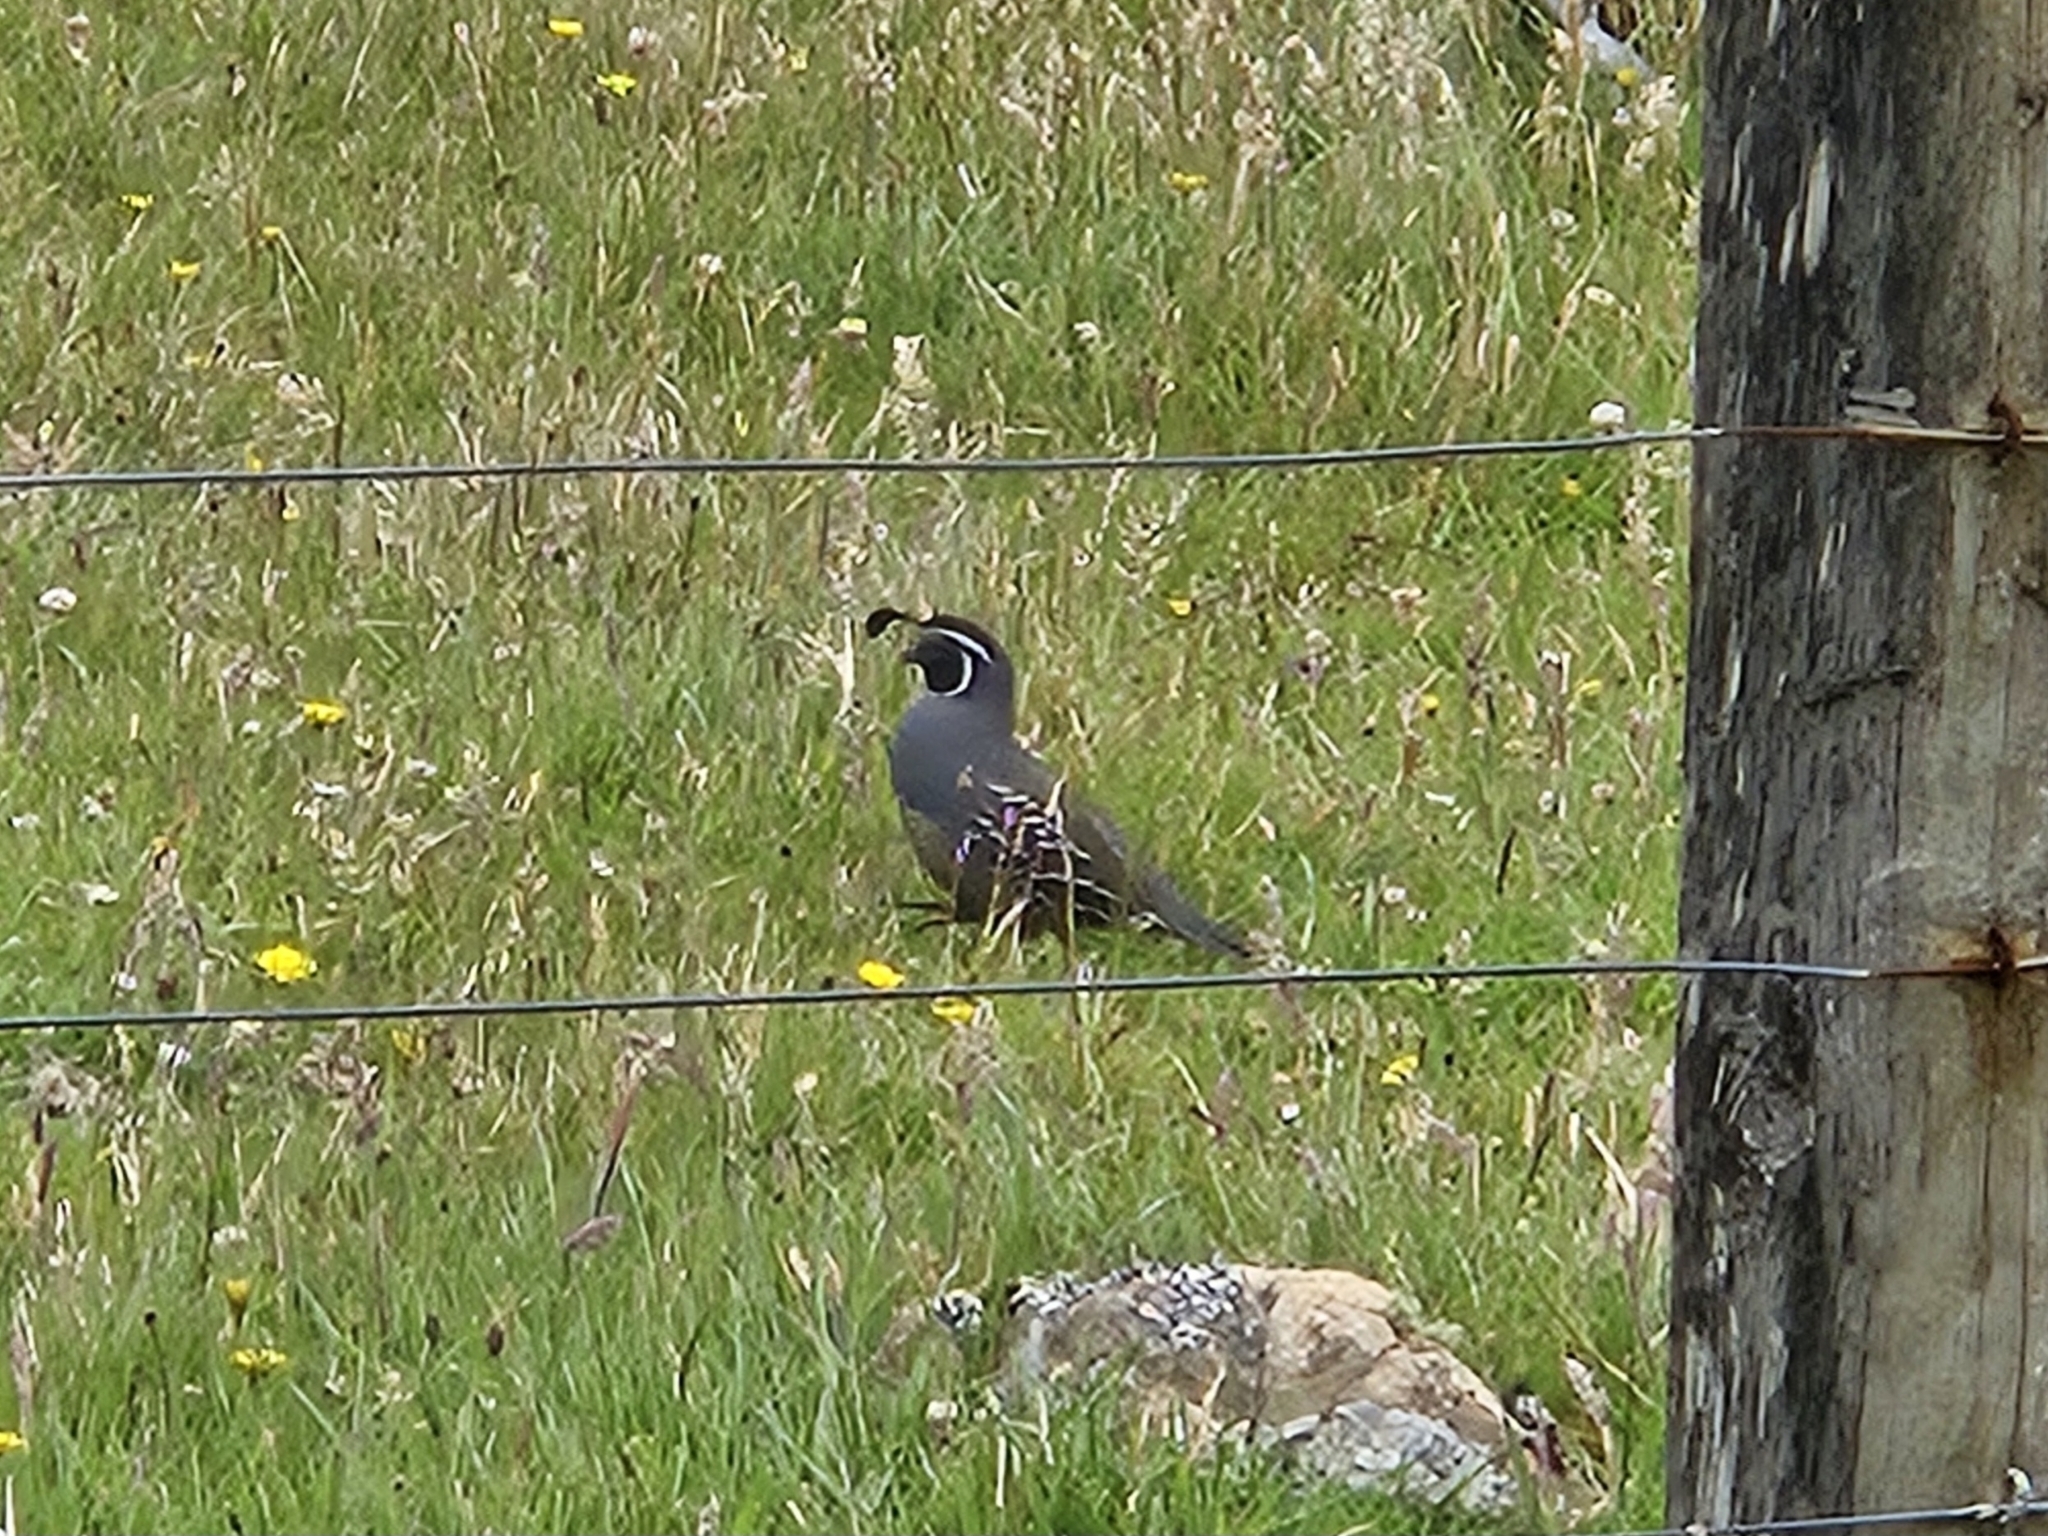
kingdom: Animalia
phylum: Chordata
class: Aves
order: Galliformes
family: Odontophoridae
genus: Callipepla
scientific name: Callipepla californica
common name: California quail
